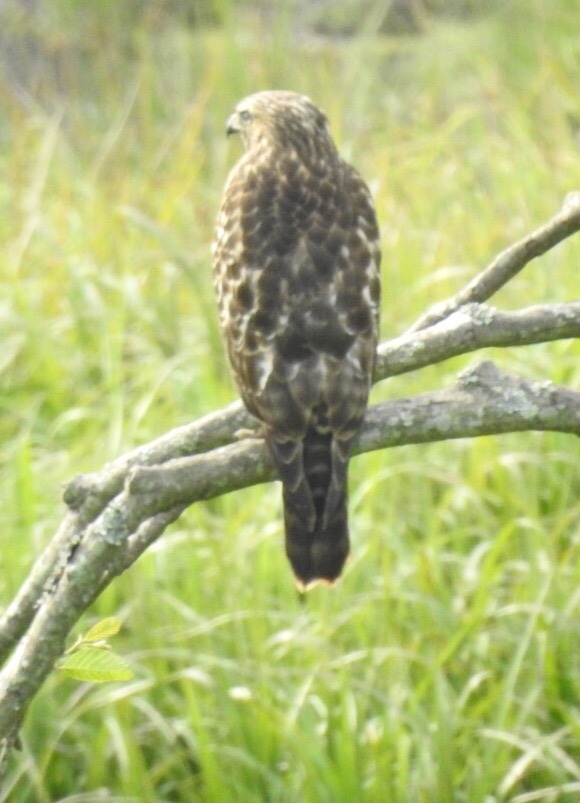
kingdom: Animalia
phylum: Chordata
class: Aves
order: Accipitriformes
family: Accipitridae
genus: Buteo
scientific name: Buteo lineatus
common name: Red-shouldered hawk
